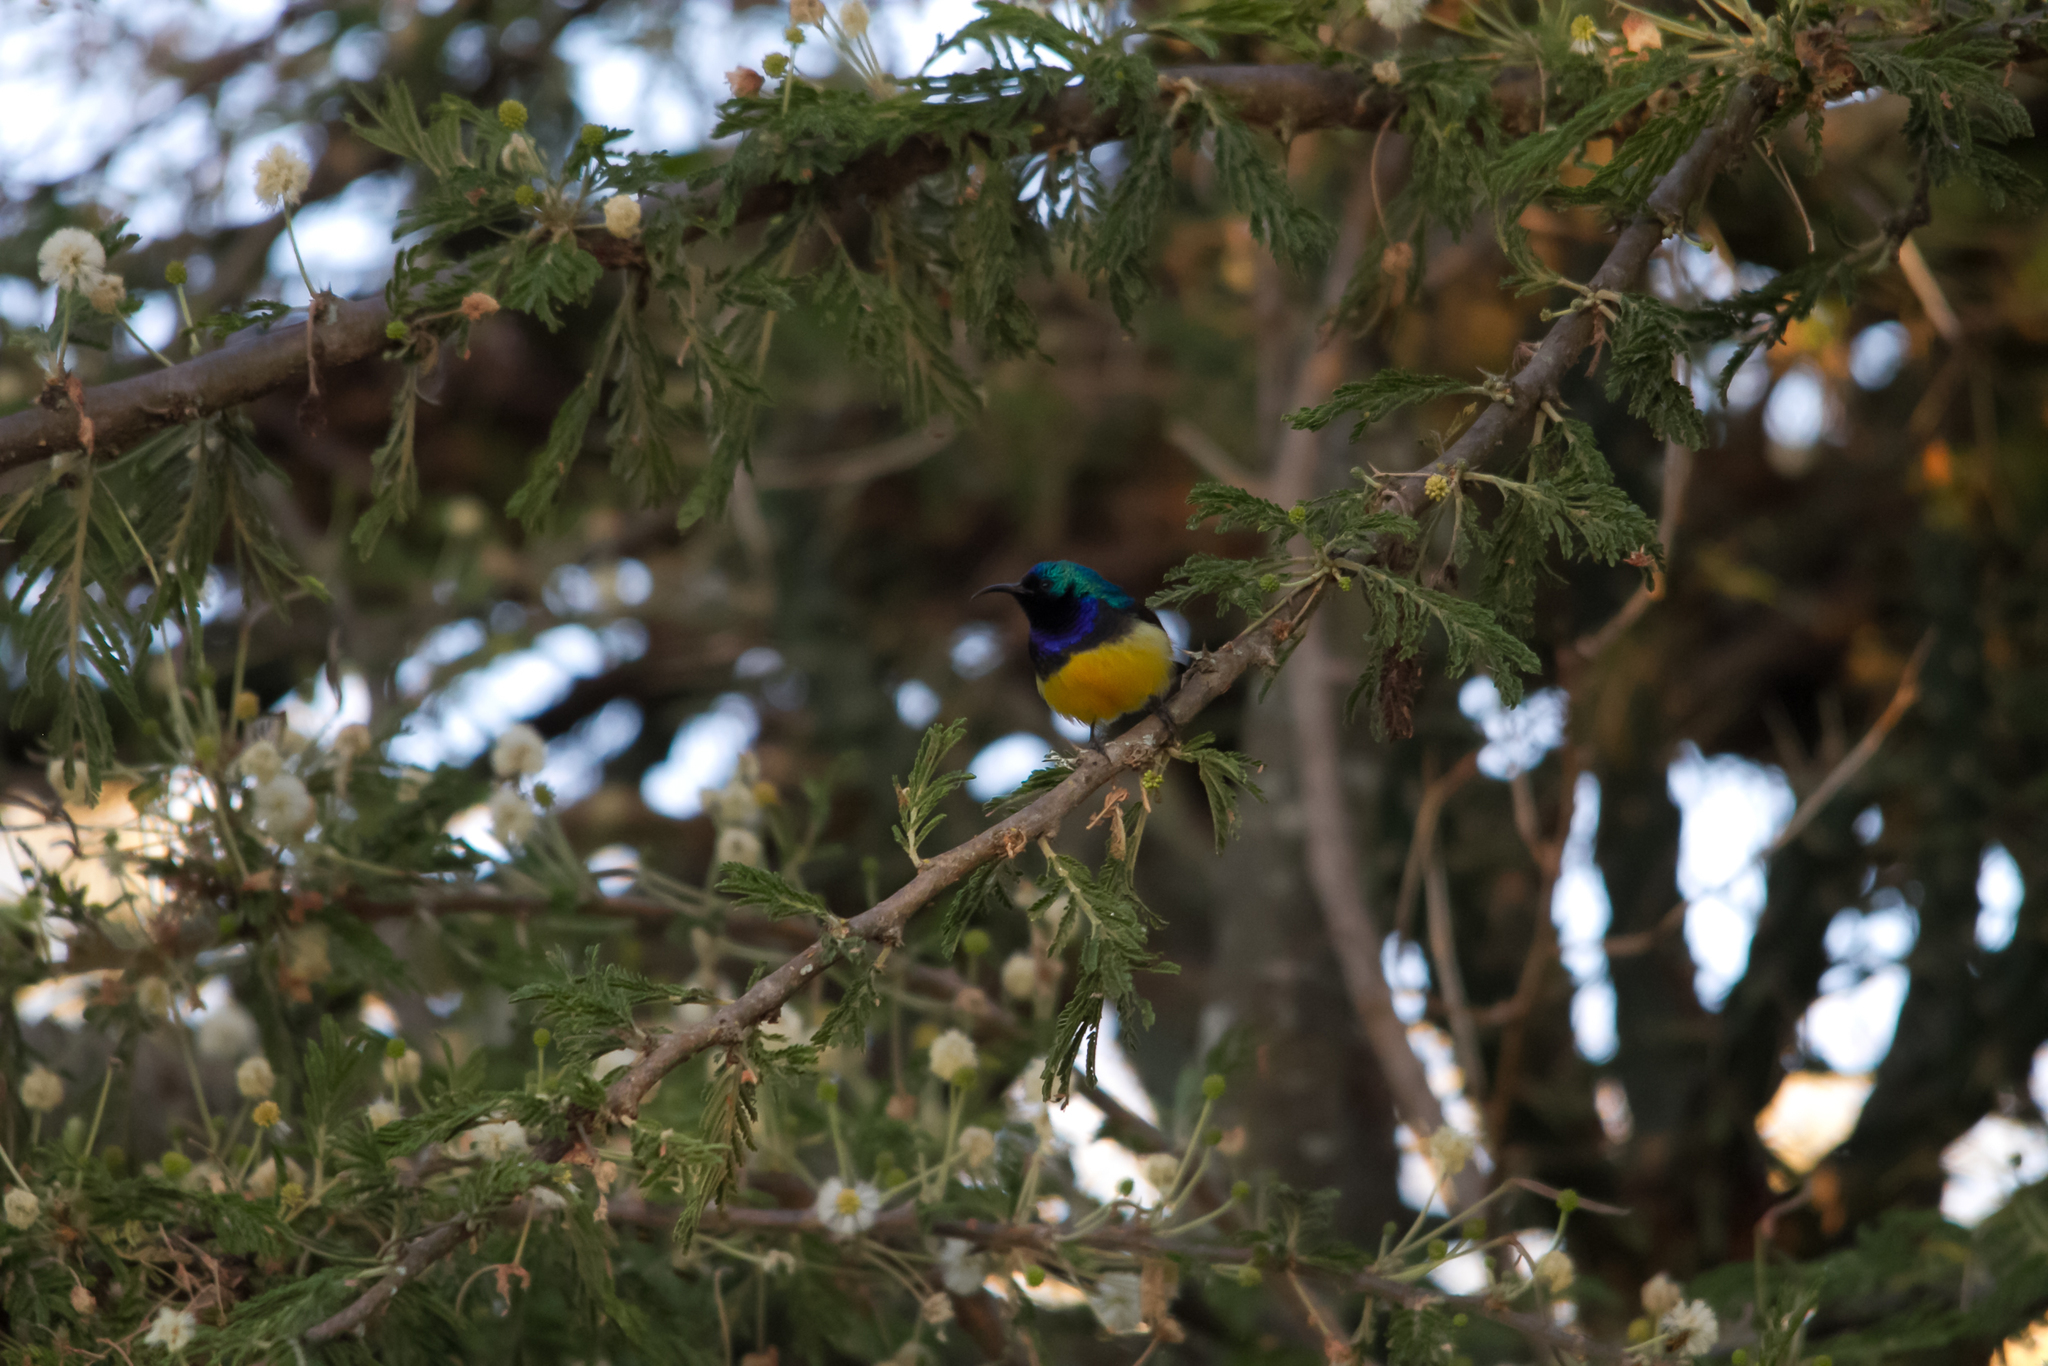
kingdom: Animalia
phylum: Chordata
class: Aves
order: Passeriformes
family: Nectariniidae
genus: Cinnyris
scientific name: Cinnyris venustus
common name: Variable sunbird
